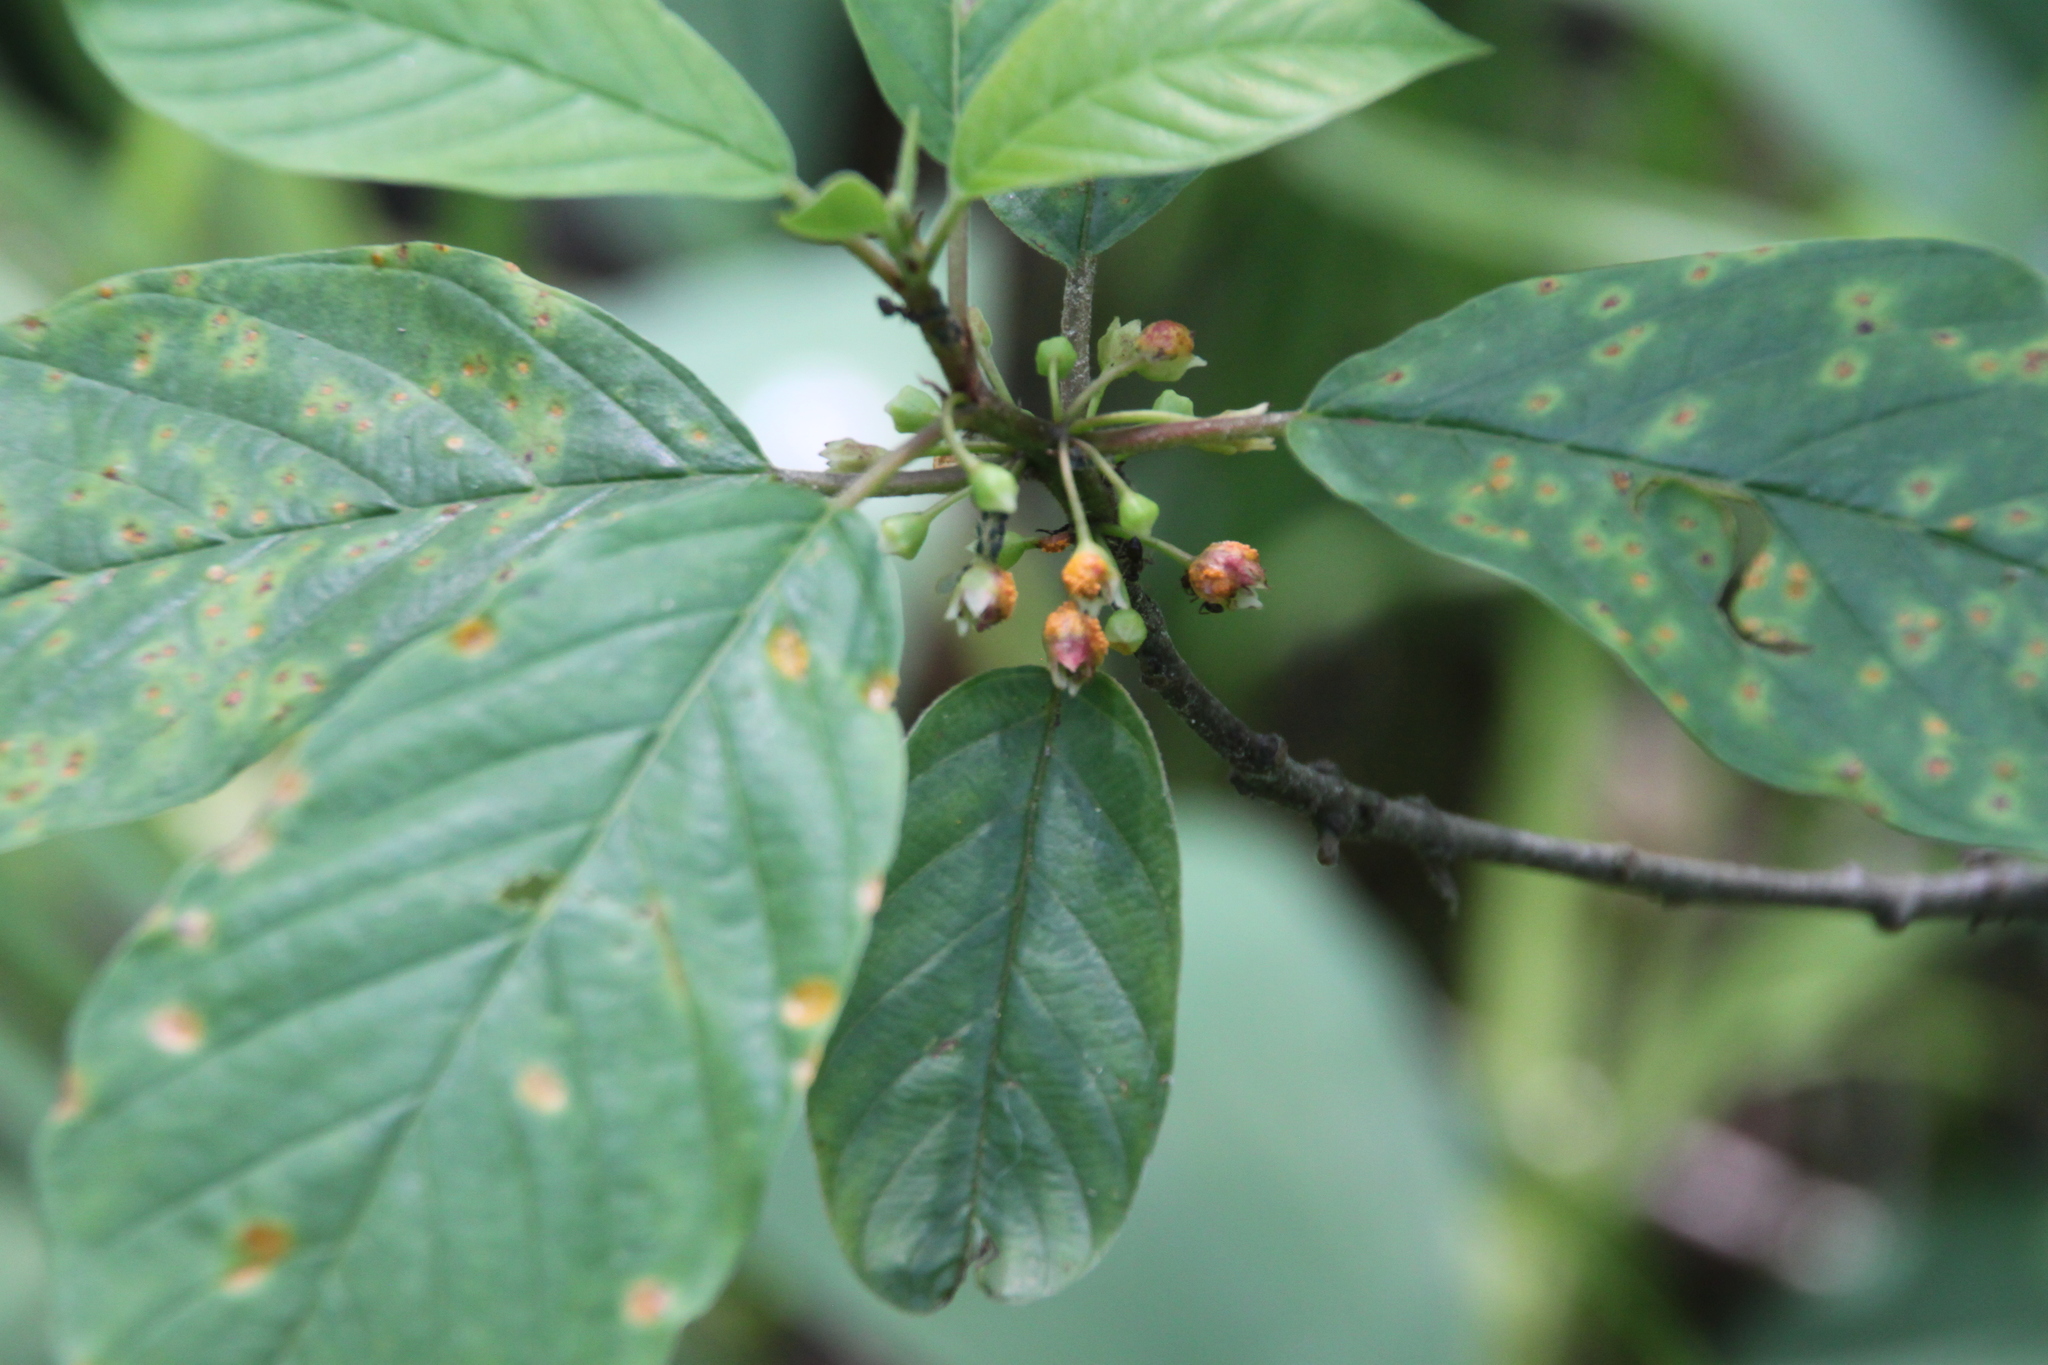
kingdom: Plantae
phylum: Tracheophyta
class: Magnoliopsida
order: Rosales
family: Rhamnaceae
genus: Frangula
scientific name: Frangula alnus
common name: Alder buckthorn
